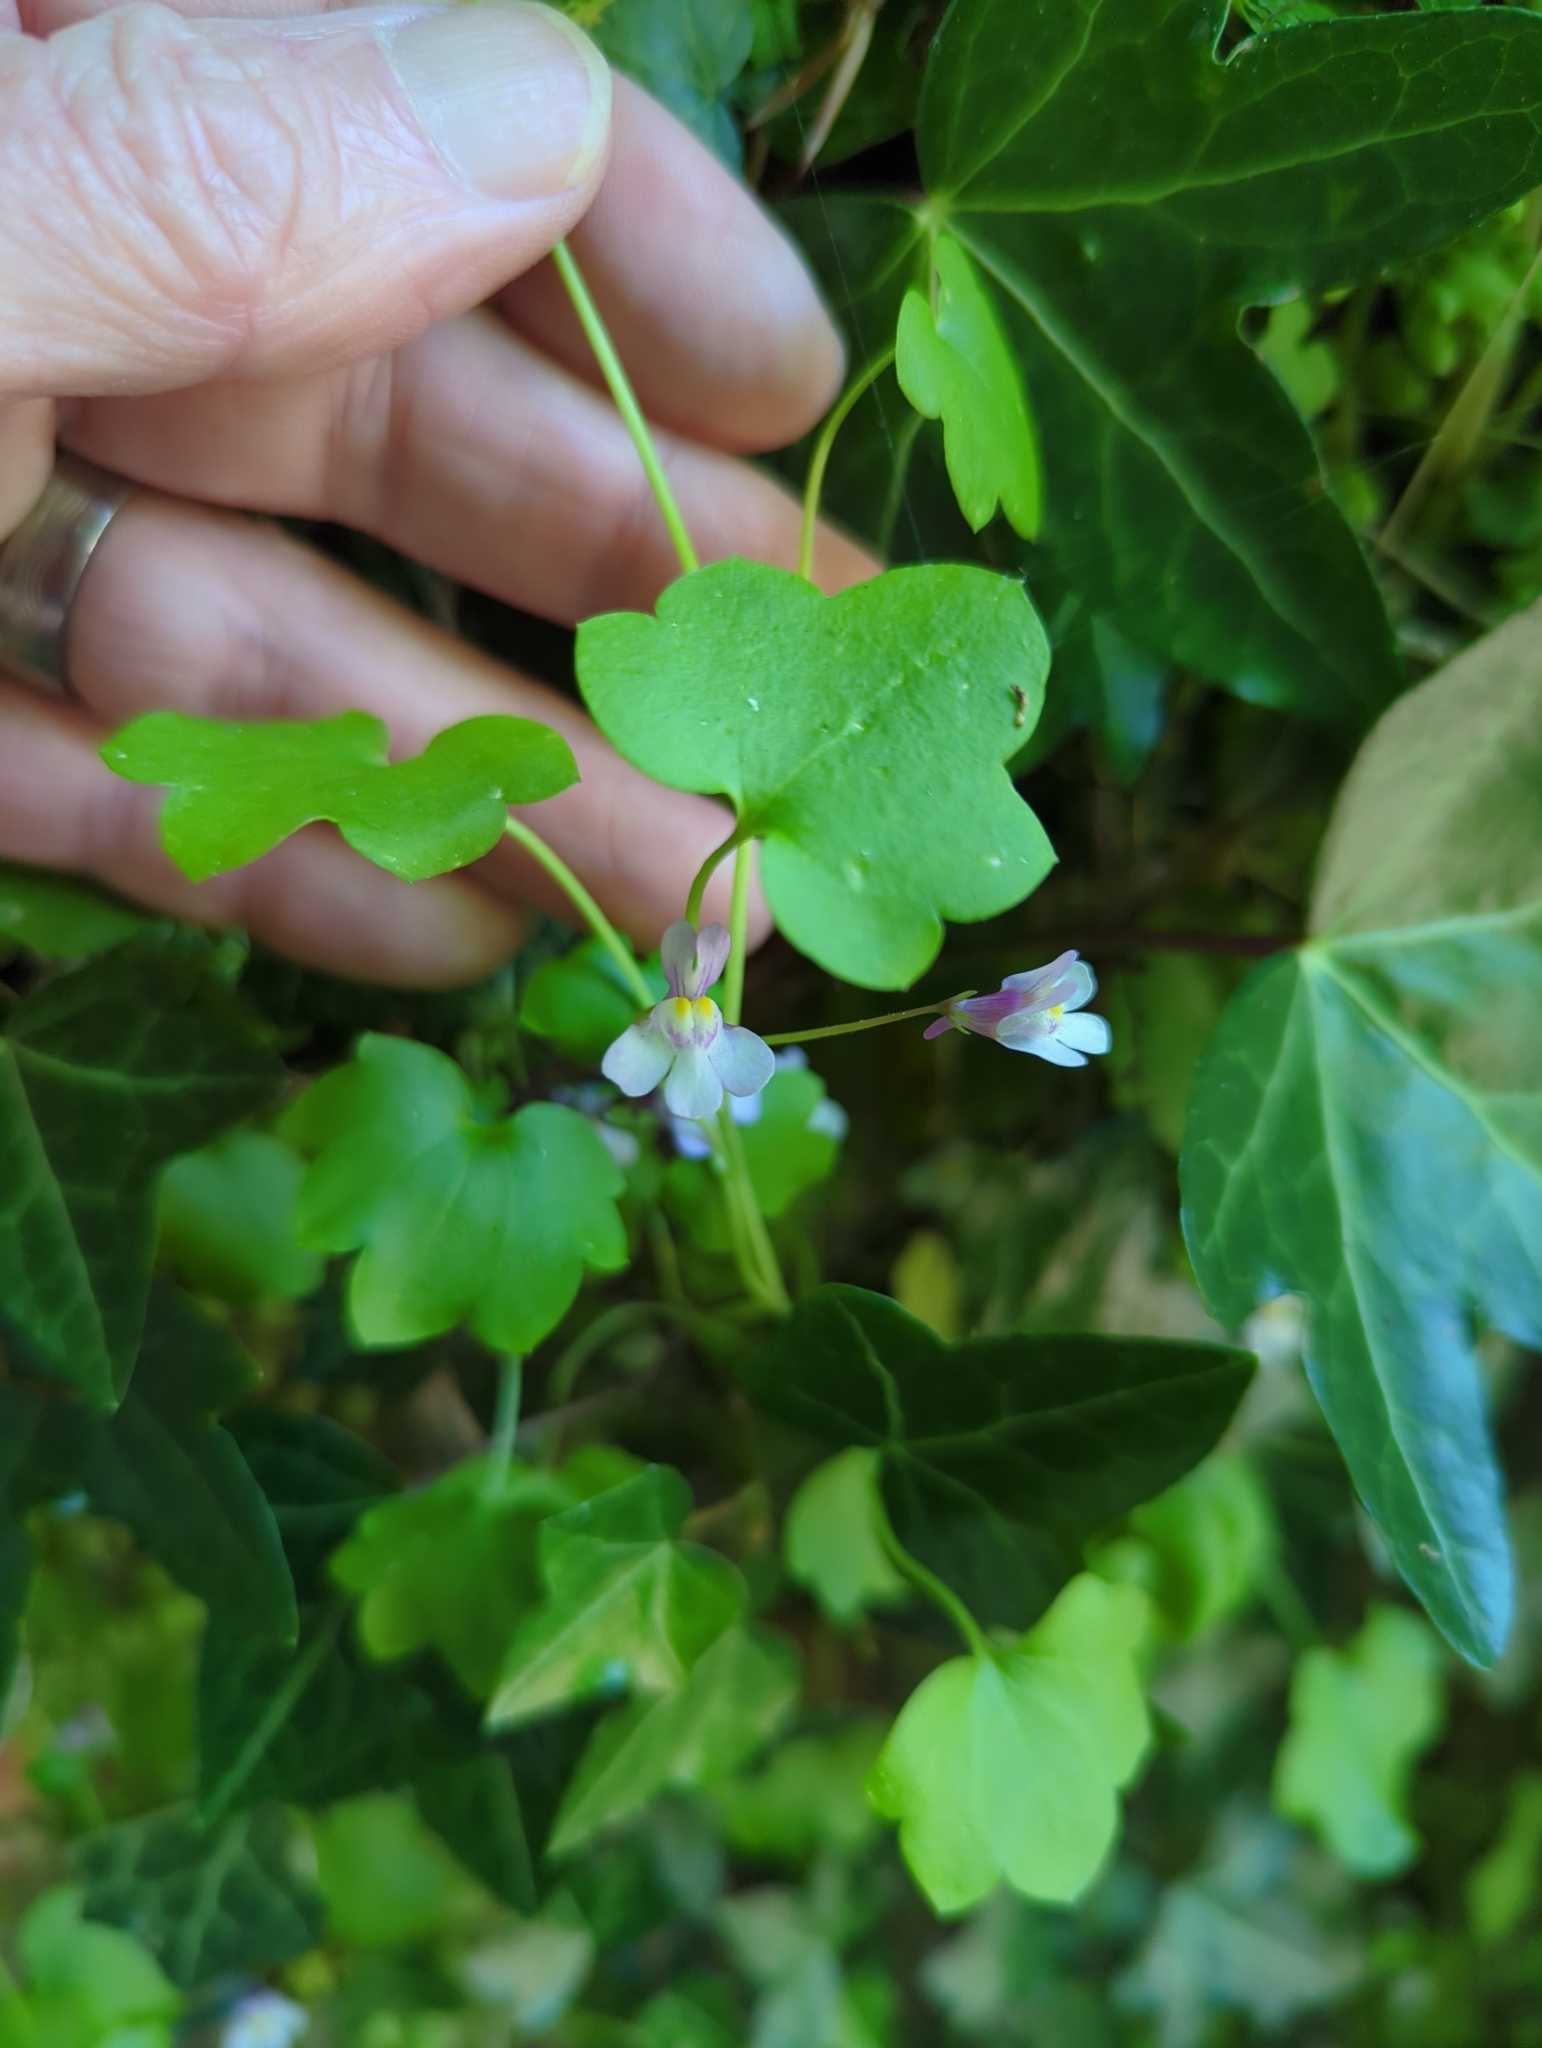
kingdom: Plantae
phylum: Tracheophyta
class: Magnoliopsida
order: Lamiales
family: Plantaginaceae
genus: Cymbalaria
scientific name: Cymbalaria muralis
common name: Ivy-leaved toadflax
